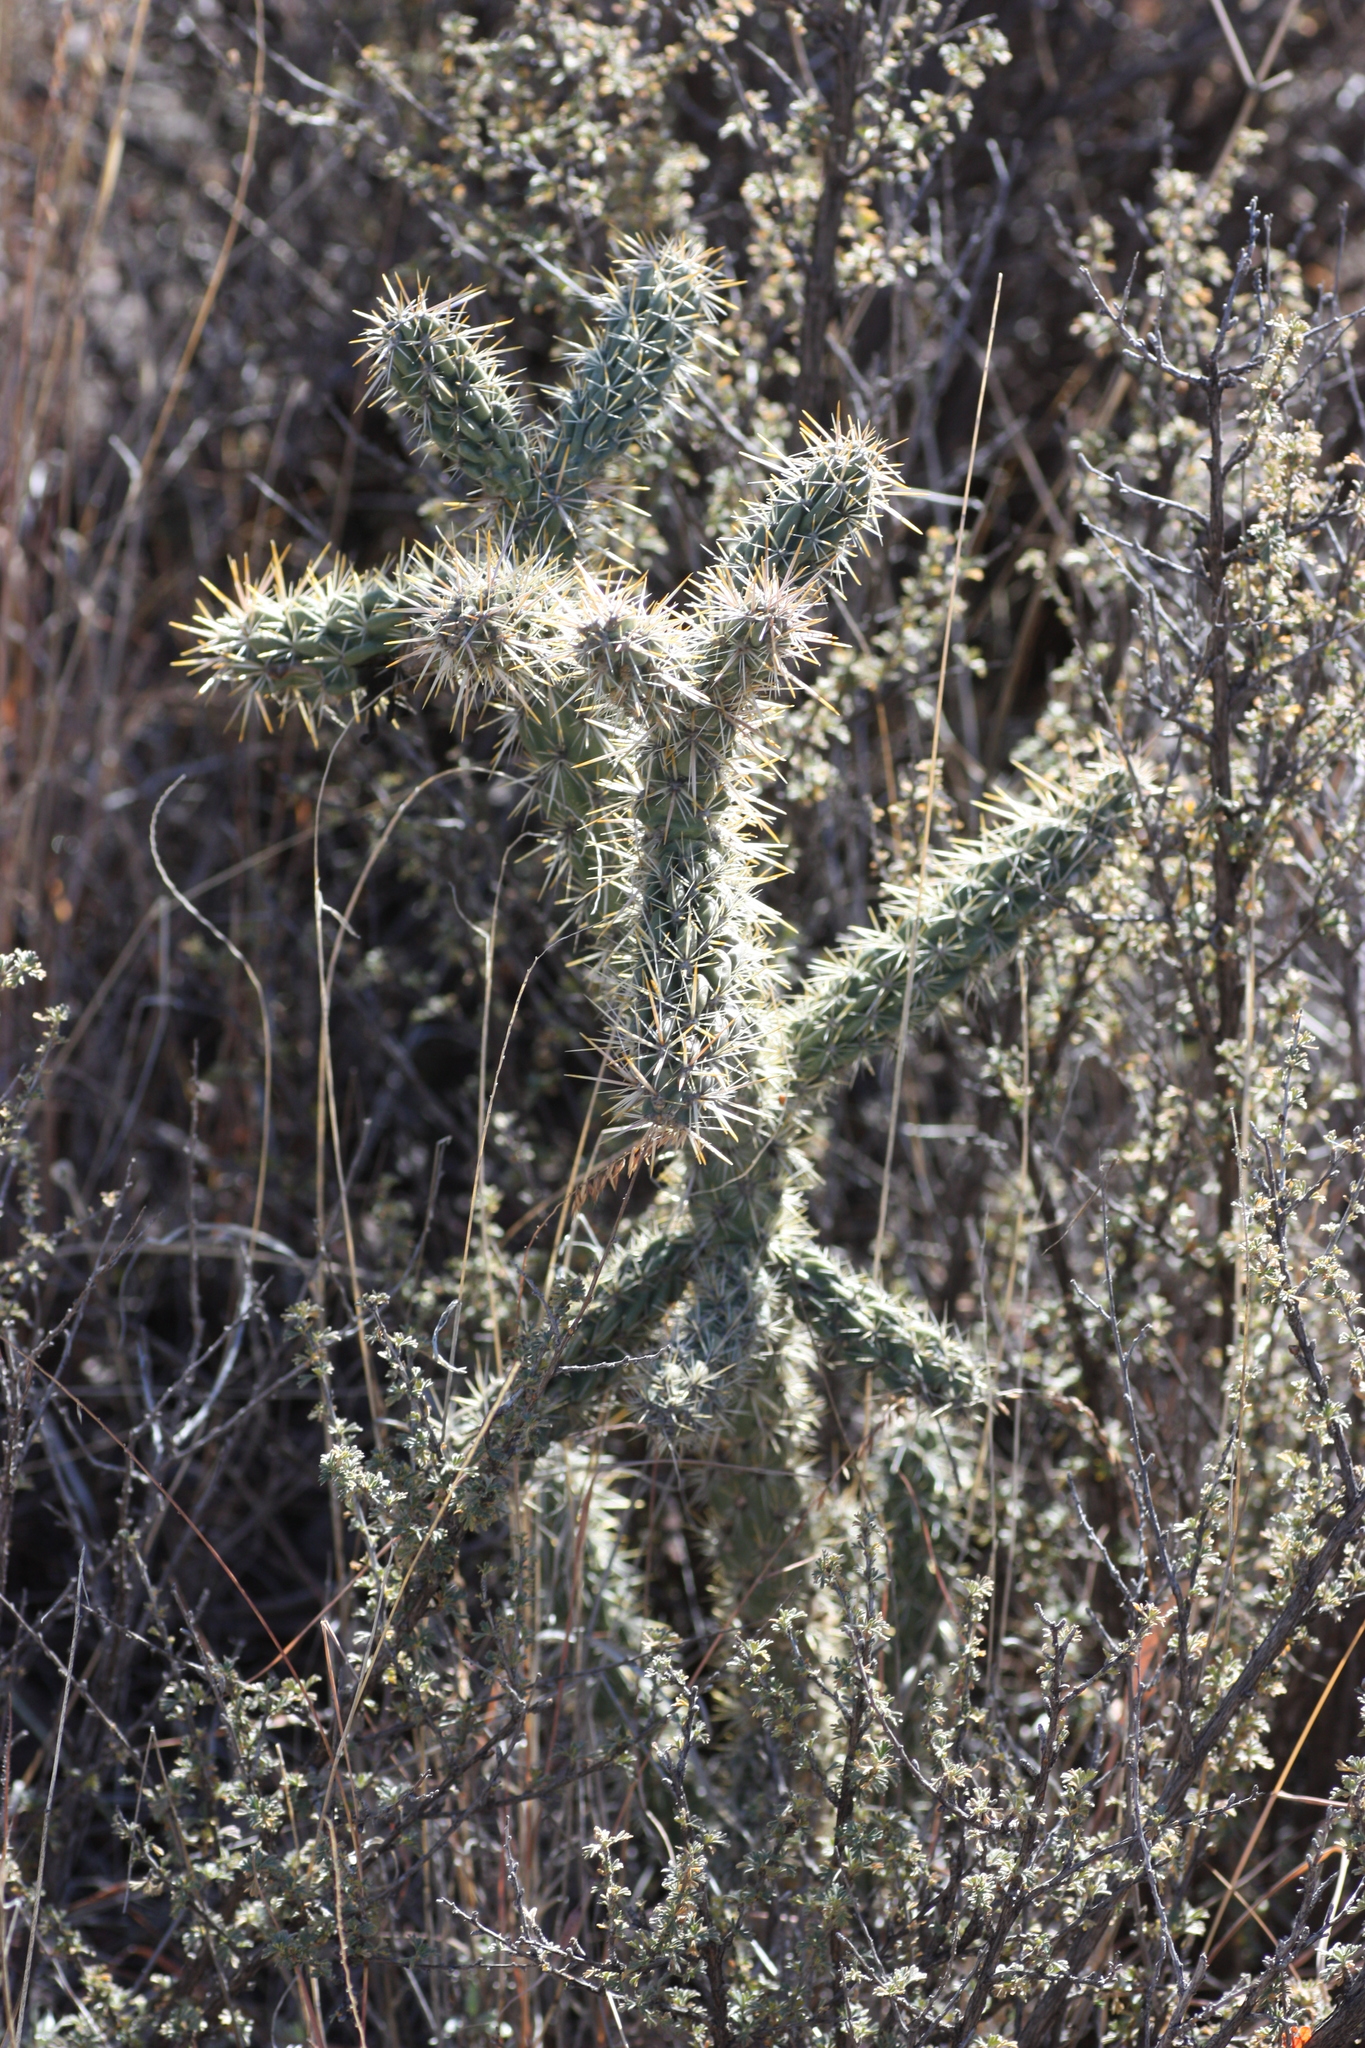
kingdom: Plantae
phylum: Tracheophyta
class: Magnoliopsida
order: Caryophyllales
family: Cactaceae
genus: Cylindropuntia
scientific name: Cylindropuntia imbricata
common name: Candelabrum cactus
